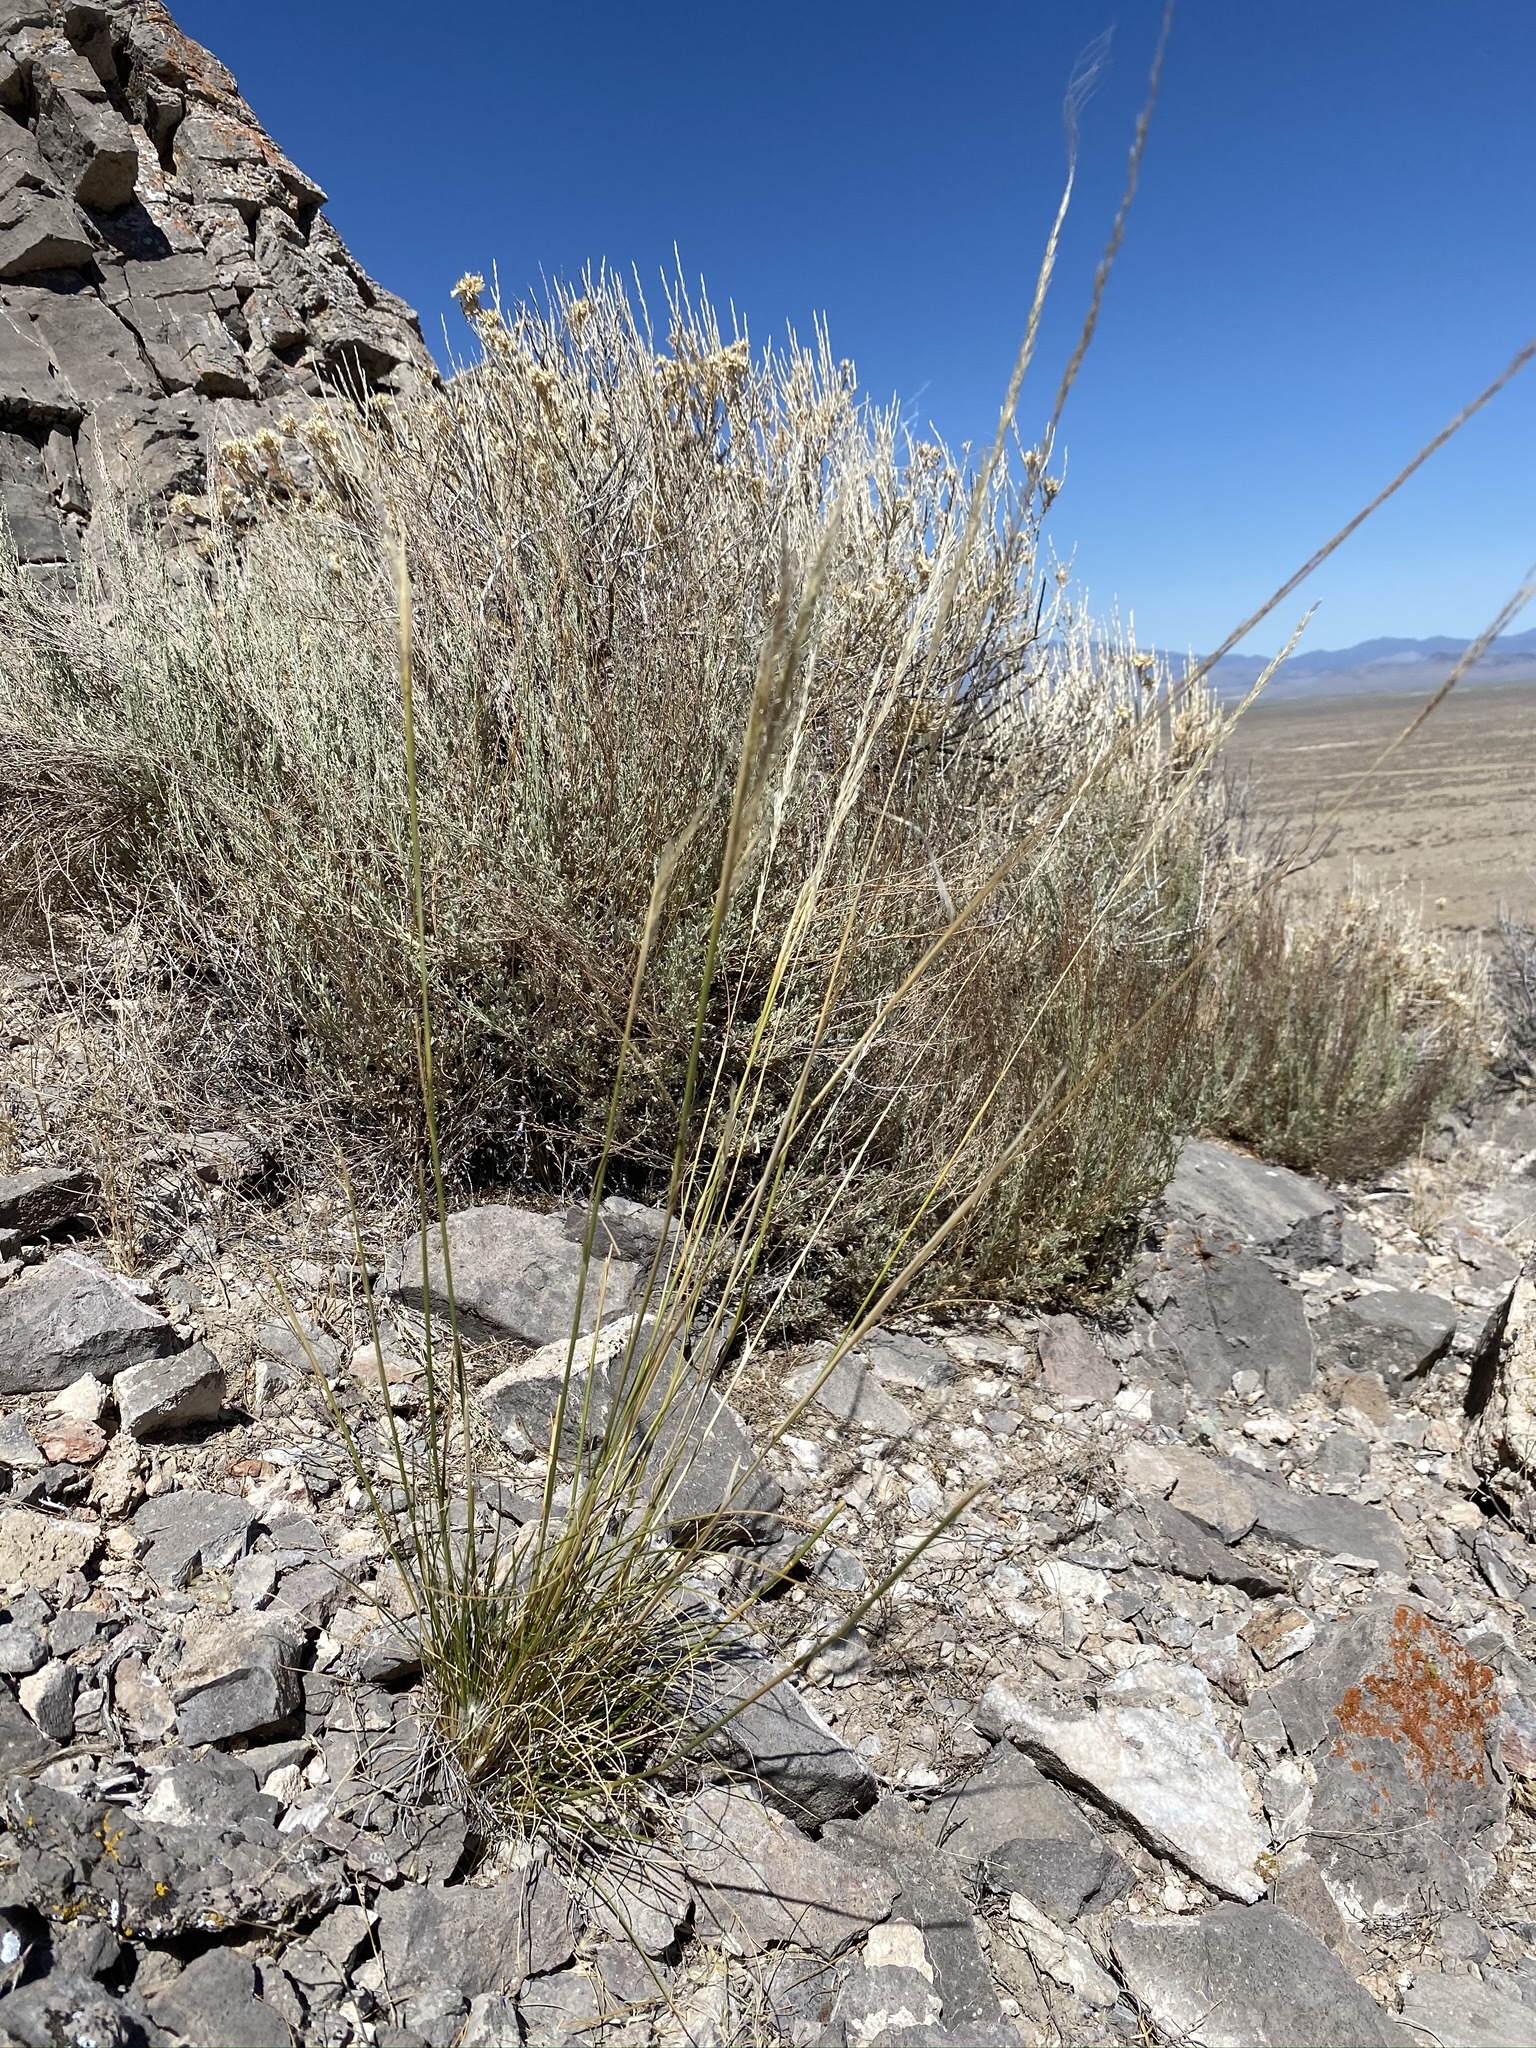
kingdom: Plantae
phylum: Tracheophyta
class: Liliopsida
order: Poales
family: Poaceae
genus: Eriocoma
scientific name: Eriocoma arida
